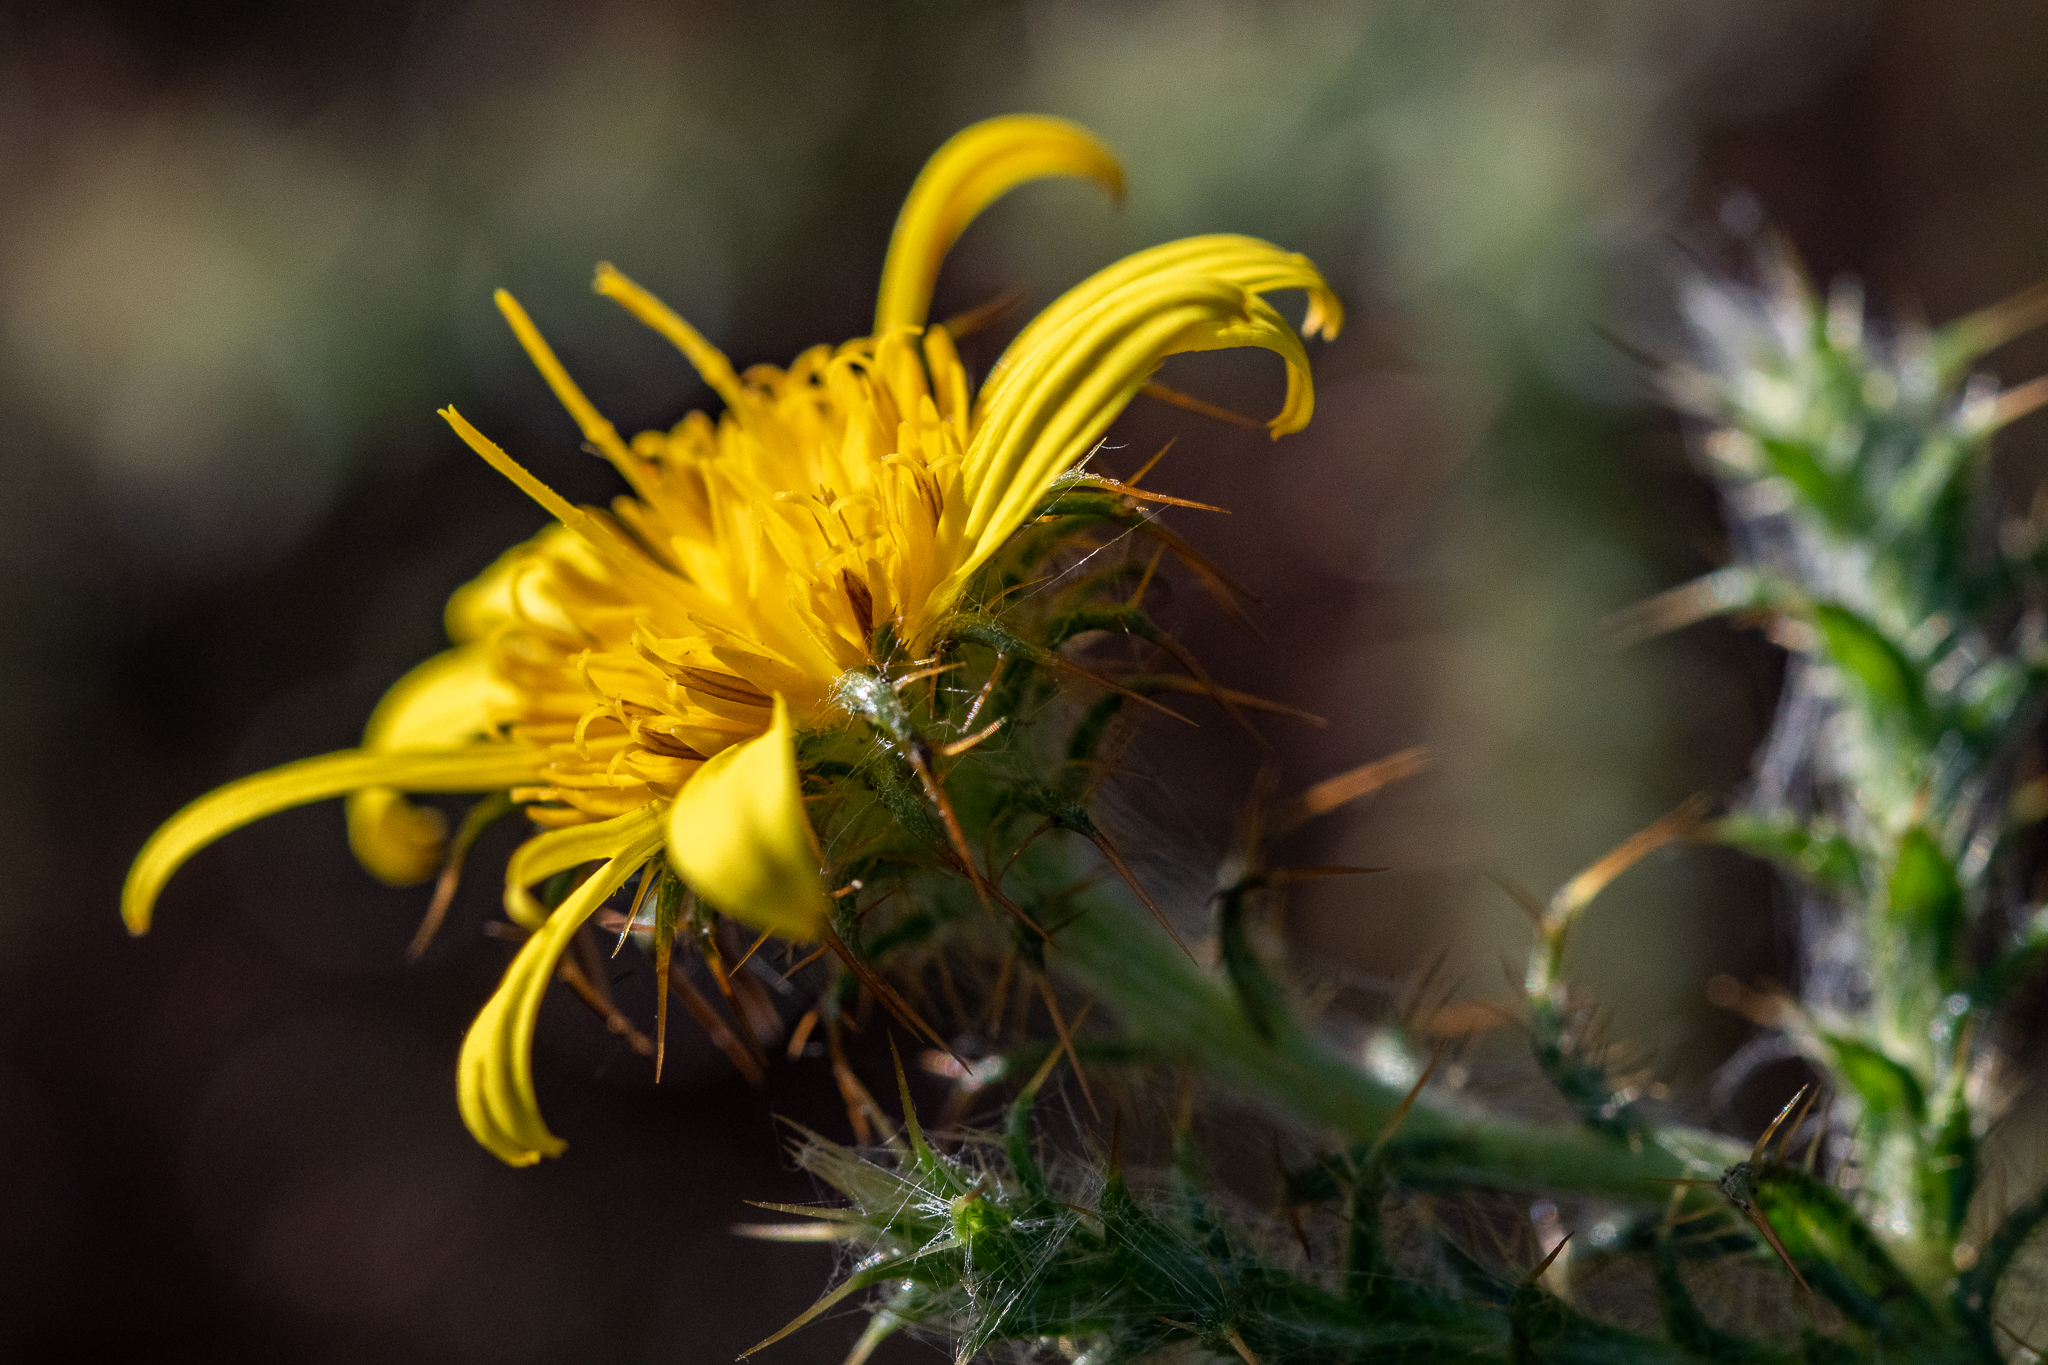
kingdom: Plantae
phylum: Tracheophyta
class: Magnoliopsida
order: Asterales
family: Asteraceae
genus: Cullumia
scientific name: Cullumia reticulata
